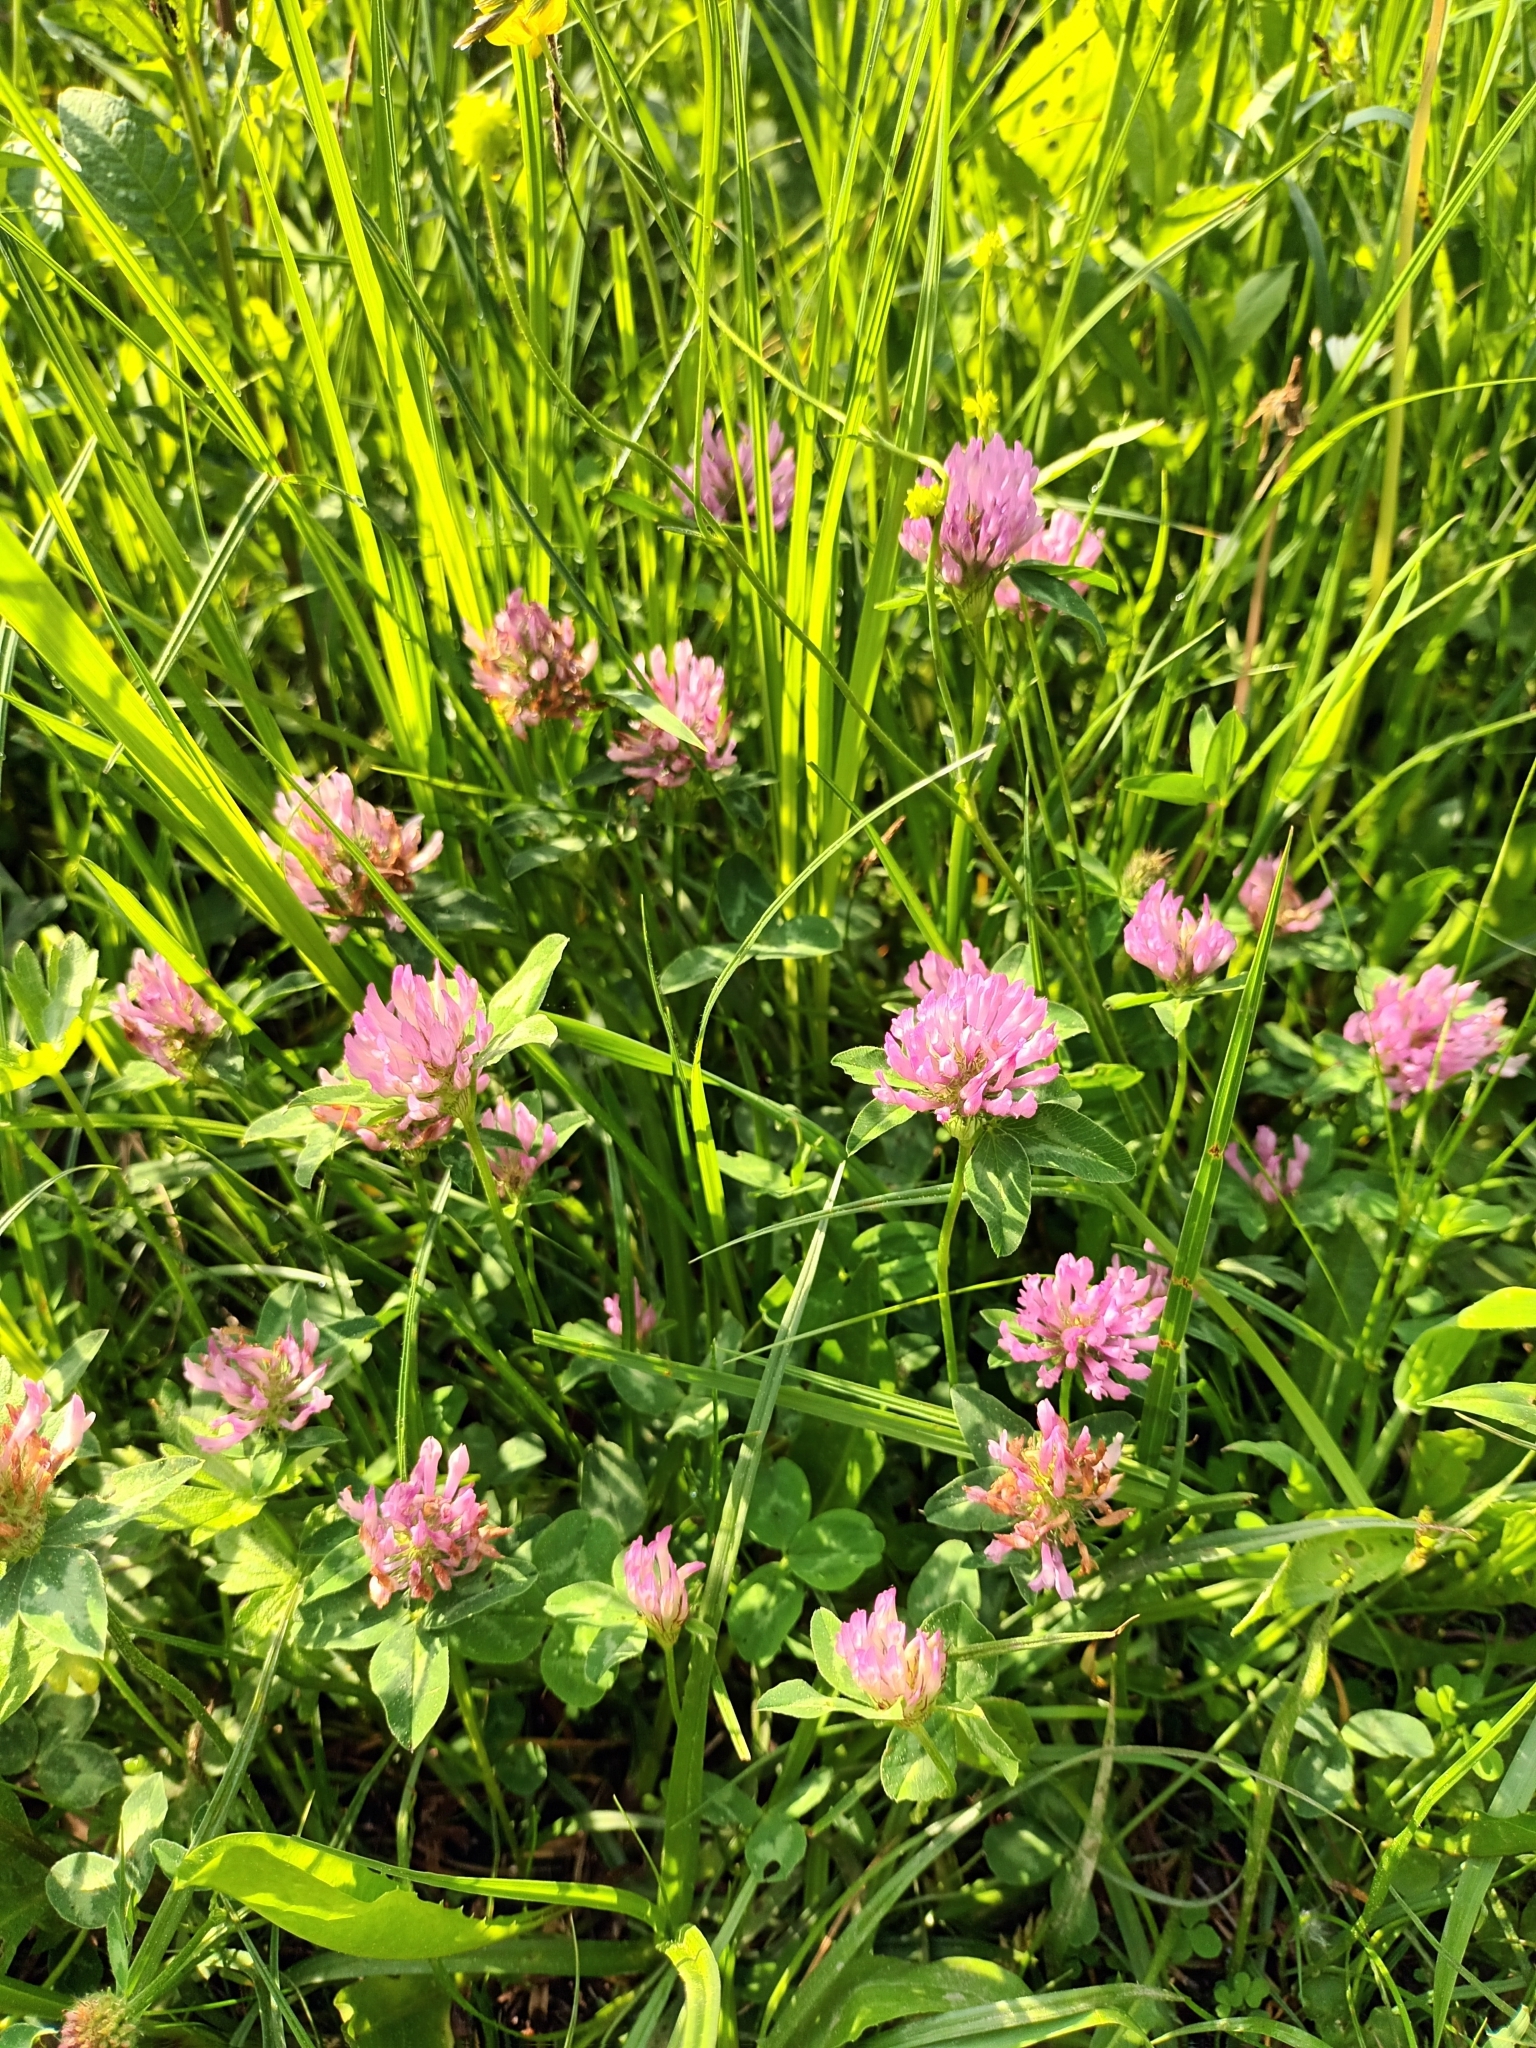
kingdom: Plantae
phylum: Tracheophyta
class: Magnoliopsida
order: Fabales
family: Fabaceae
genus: Trifolium
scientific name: Trifolium pratense
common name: Red clover
